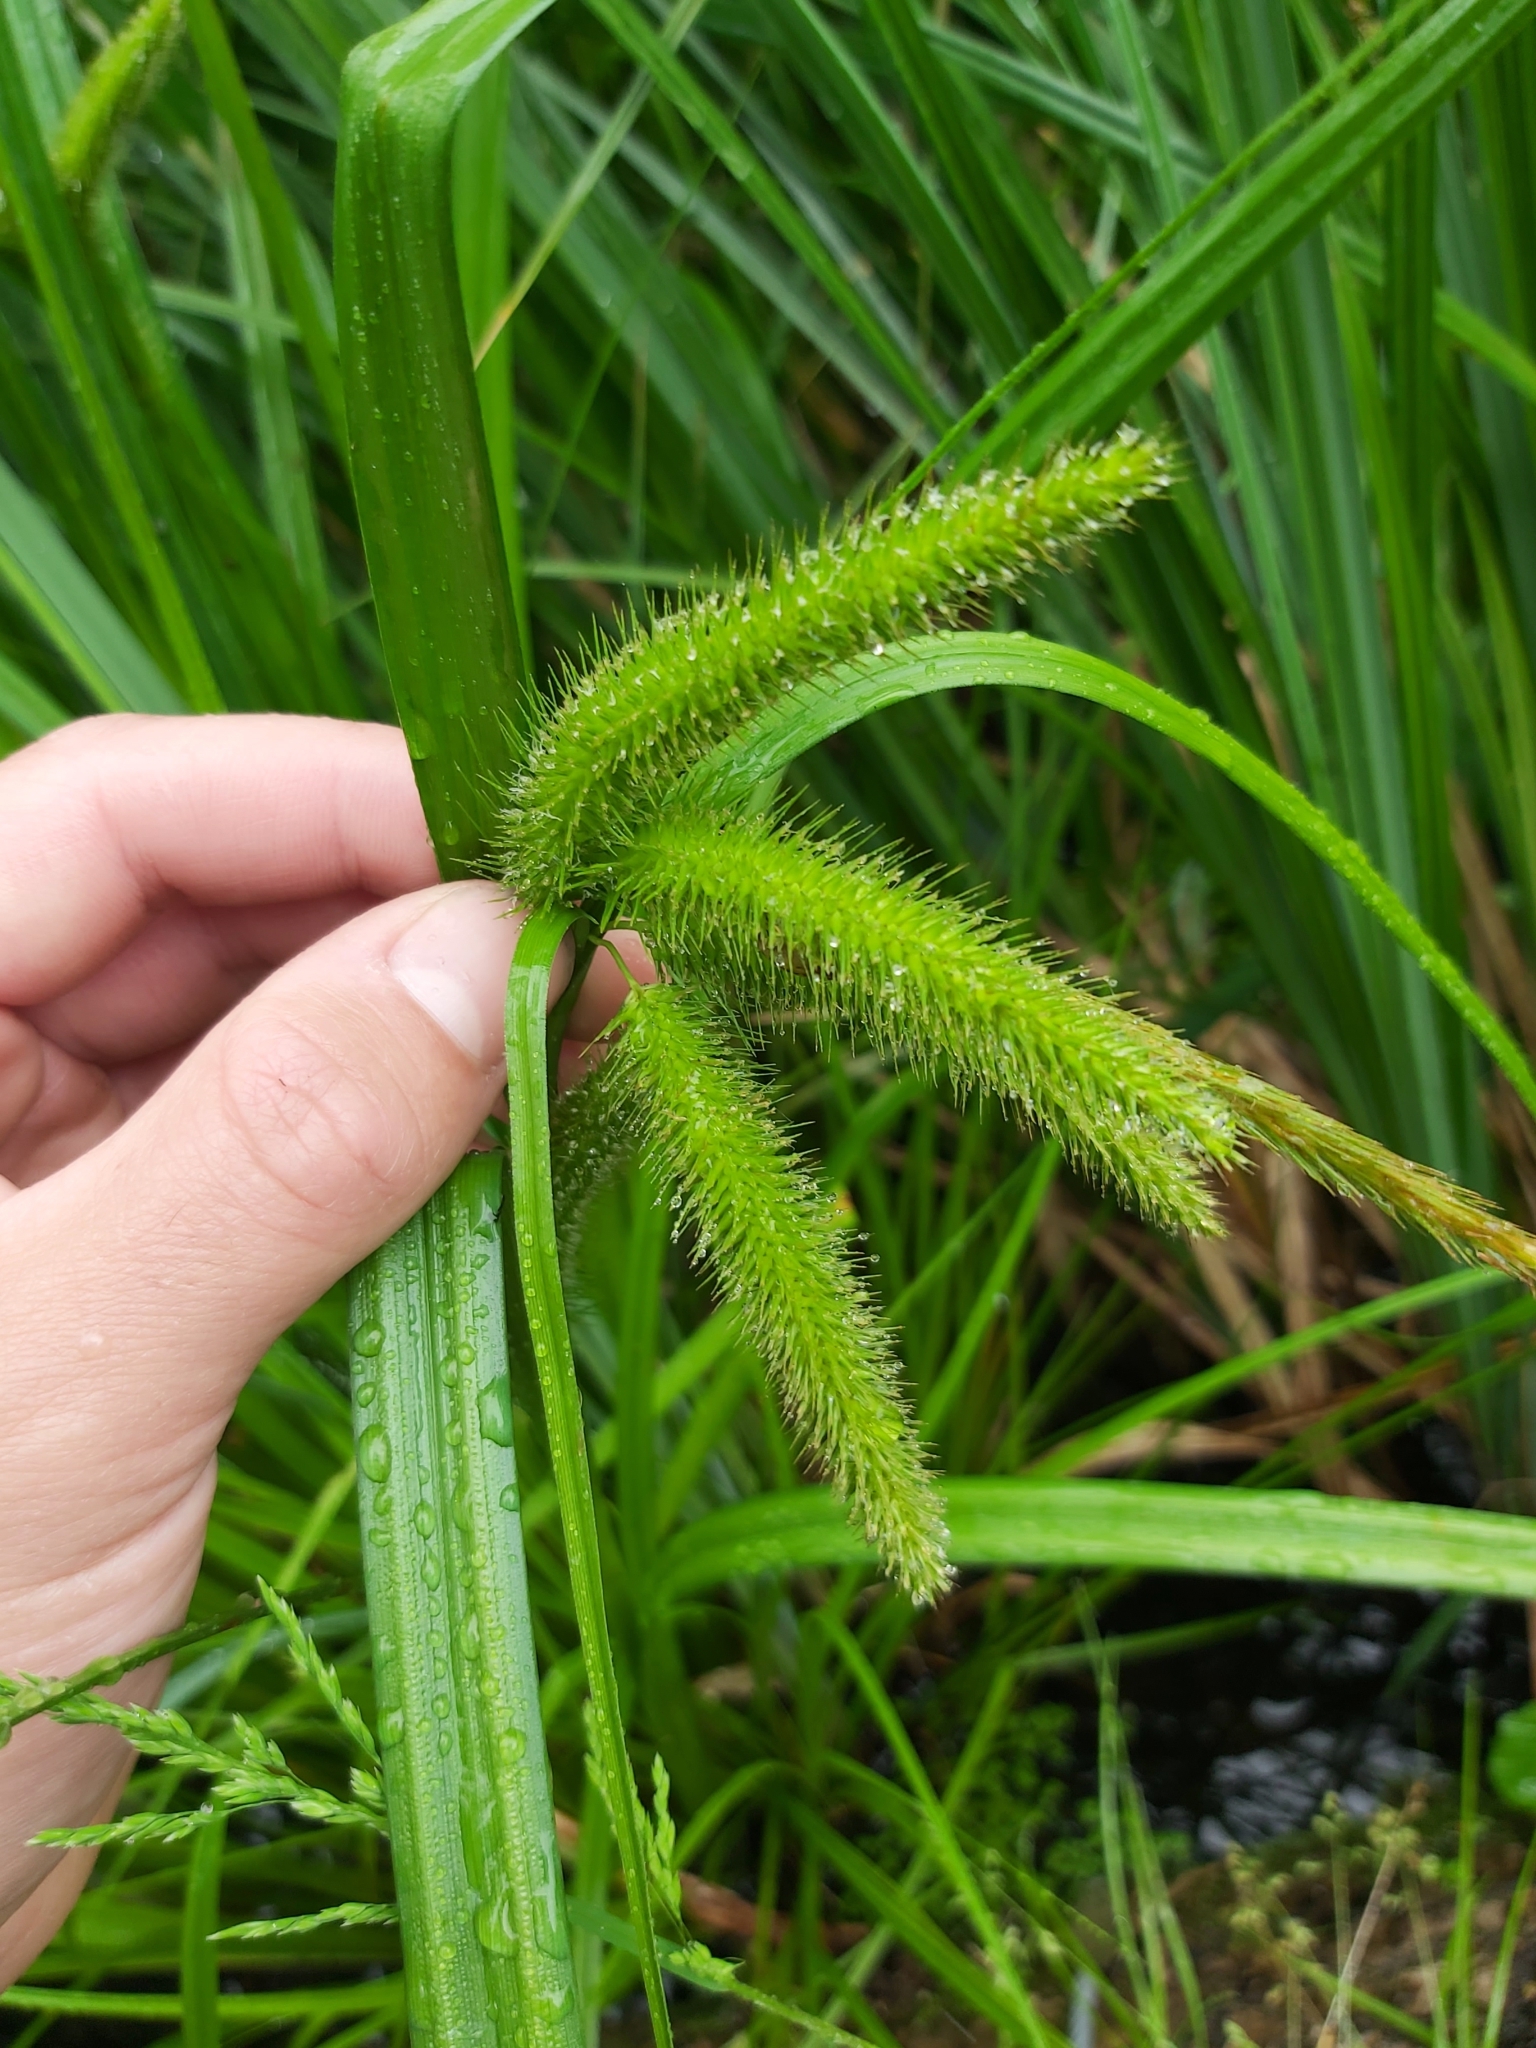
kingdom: Plantae
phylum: Tracheophyta
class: Liliopsida
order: Poales
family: Cyperaceae
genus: Carex
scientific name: Carex pseudocyperus
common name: Cyperus sedge
